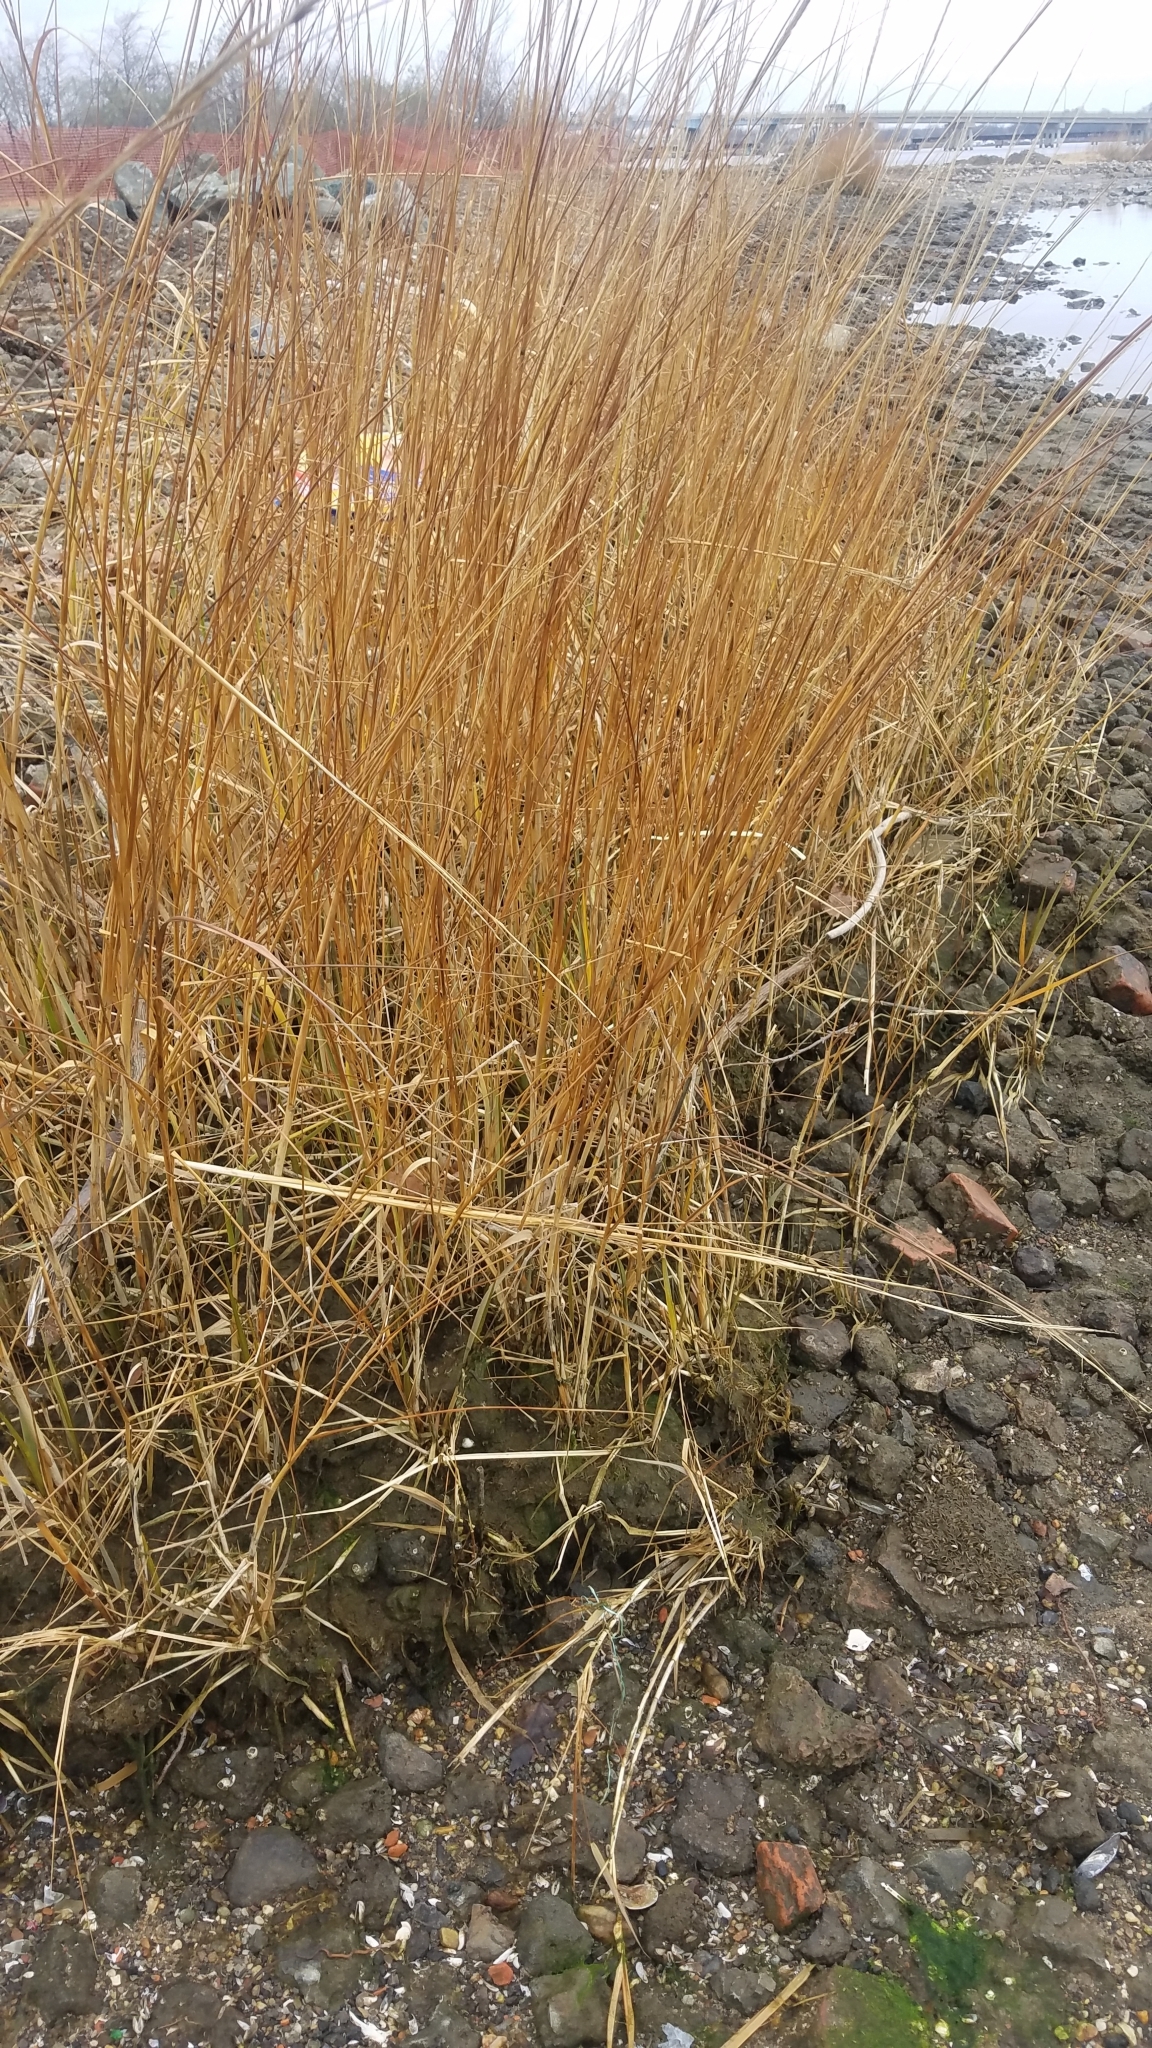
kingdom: Plantae
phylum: Tracheophyta
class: Liliopsida
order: Poales
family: Poaceae
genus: Sporobolus
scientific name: Sporobolus alterniflorus
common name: Atlantic cordgrass
